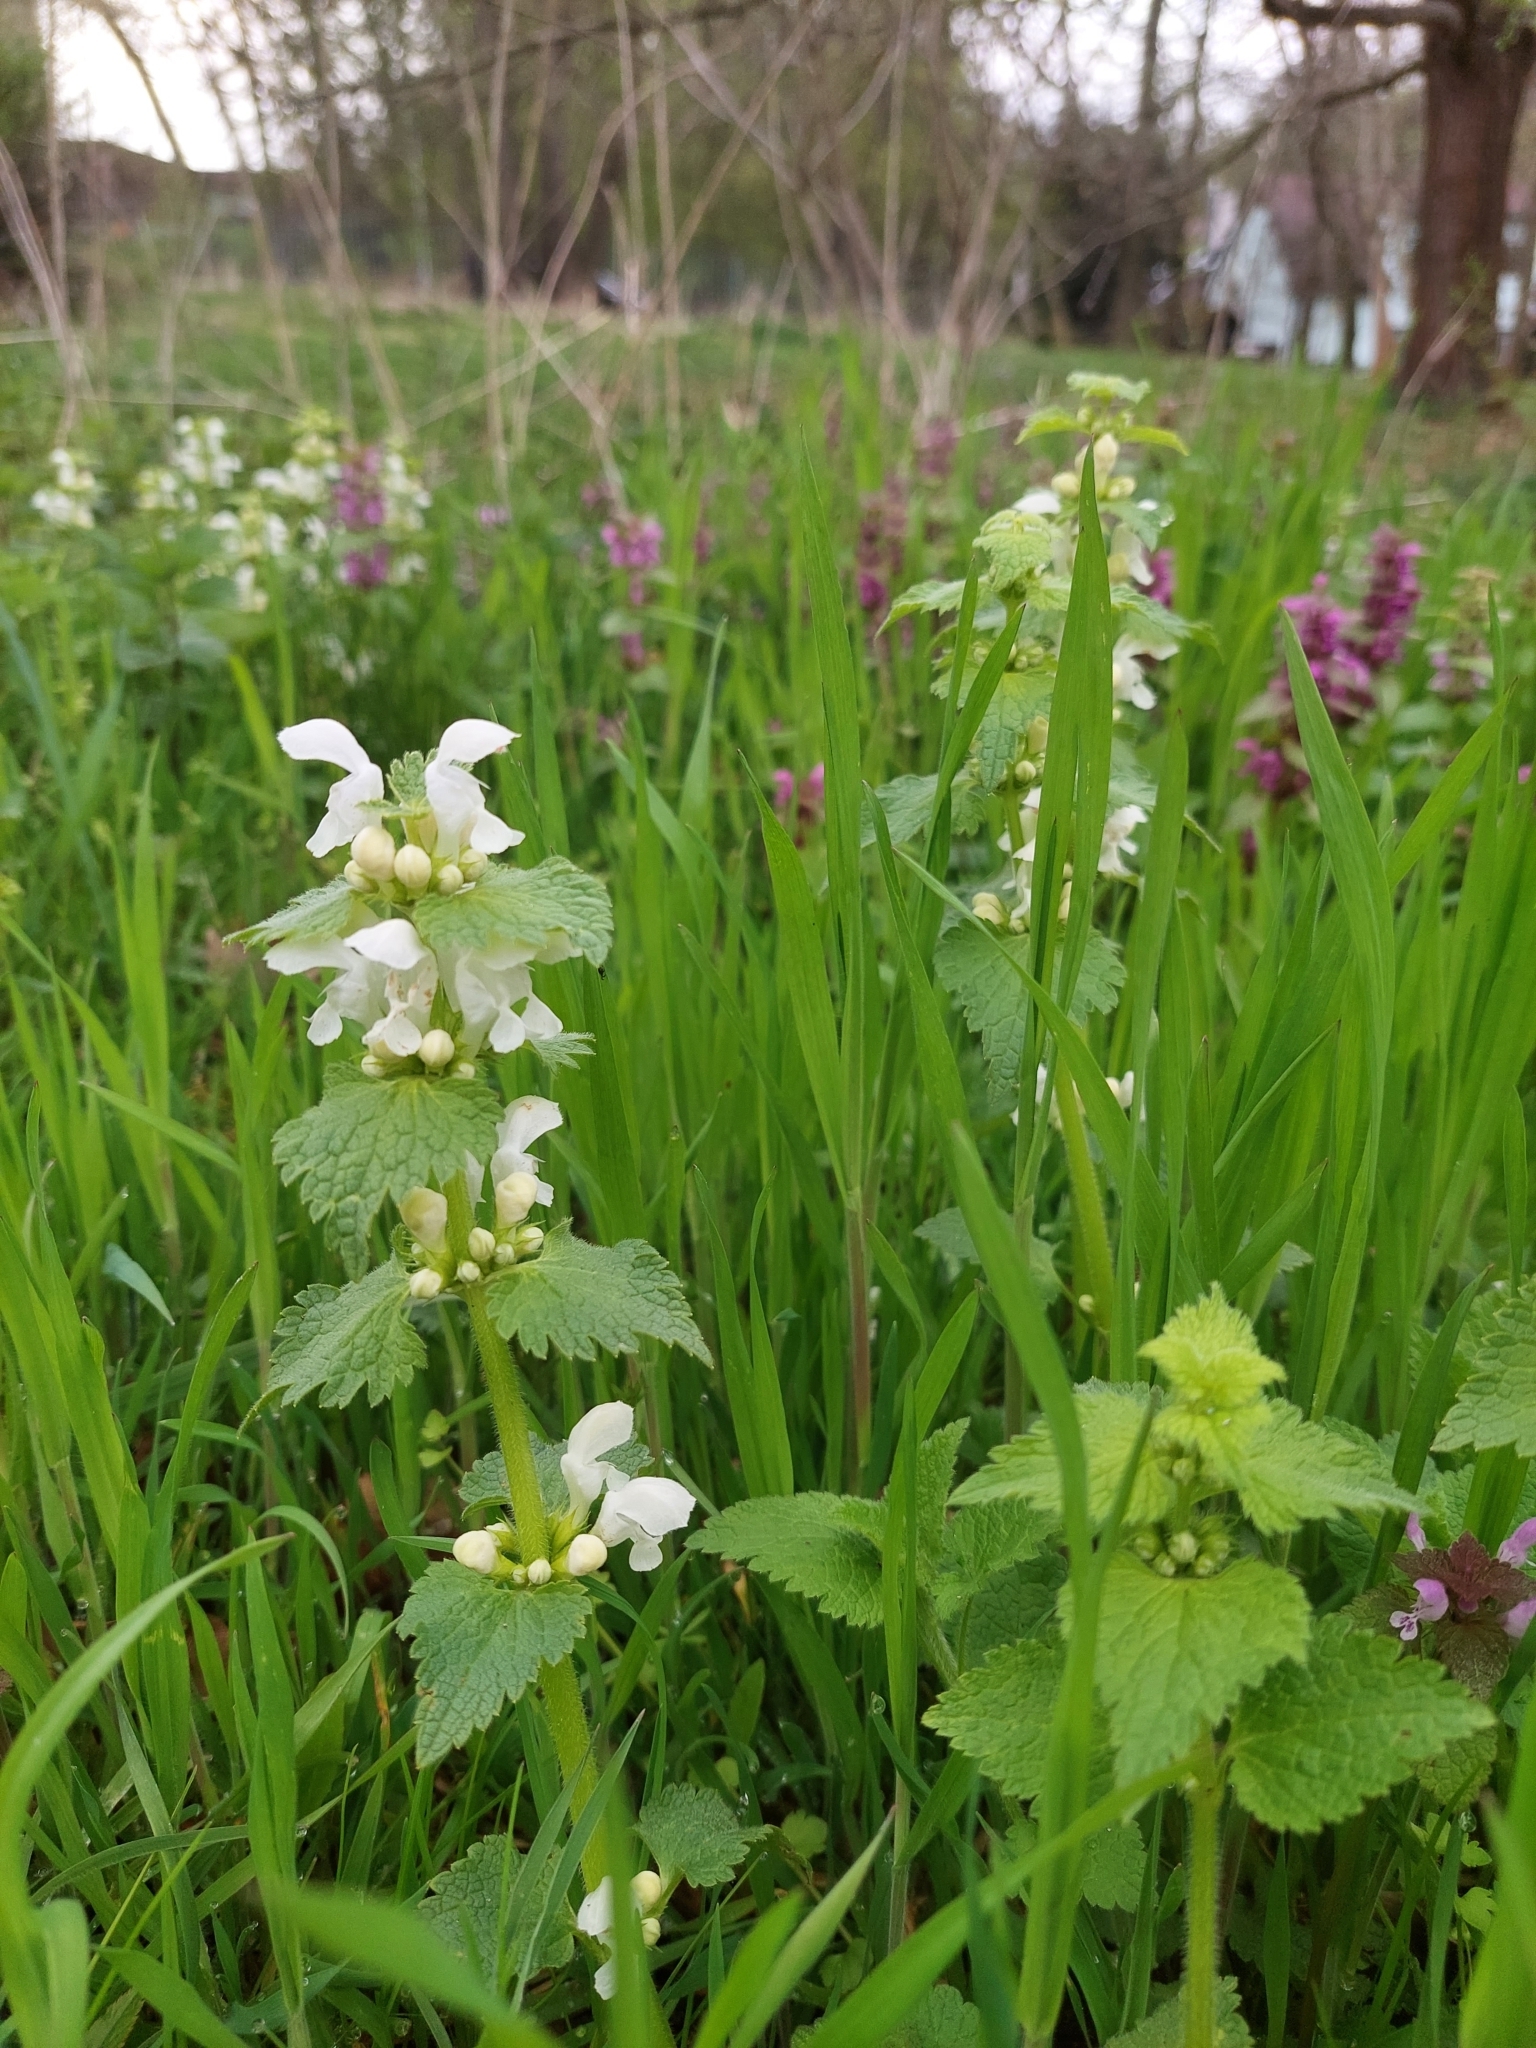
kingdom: Plantae
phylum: Tracheophyta
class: Magnoliopsida
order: Lamiales
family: Lamiaceae
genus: Lamium
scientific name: Lamium maculatum
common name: Spotted dead-nettle
